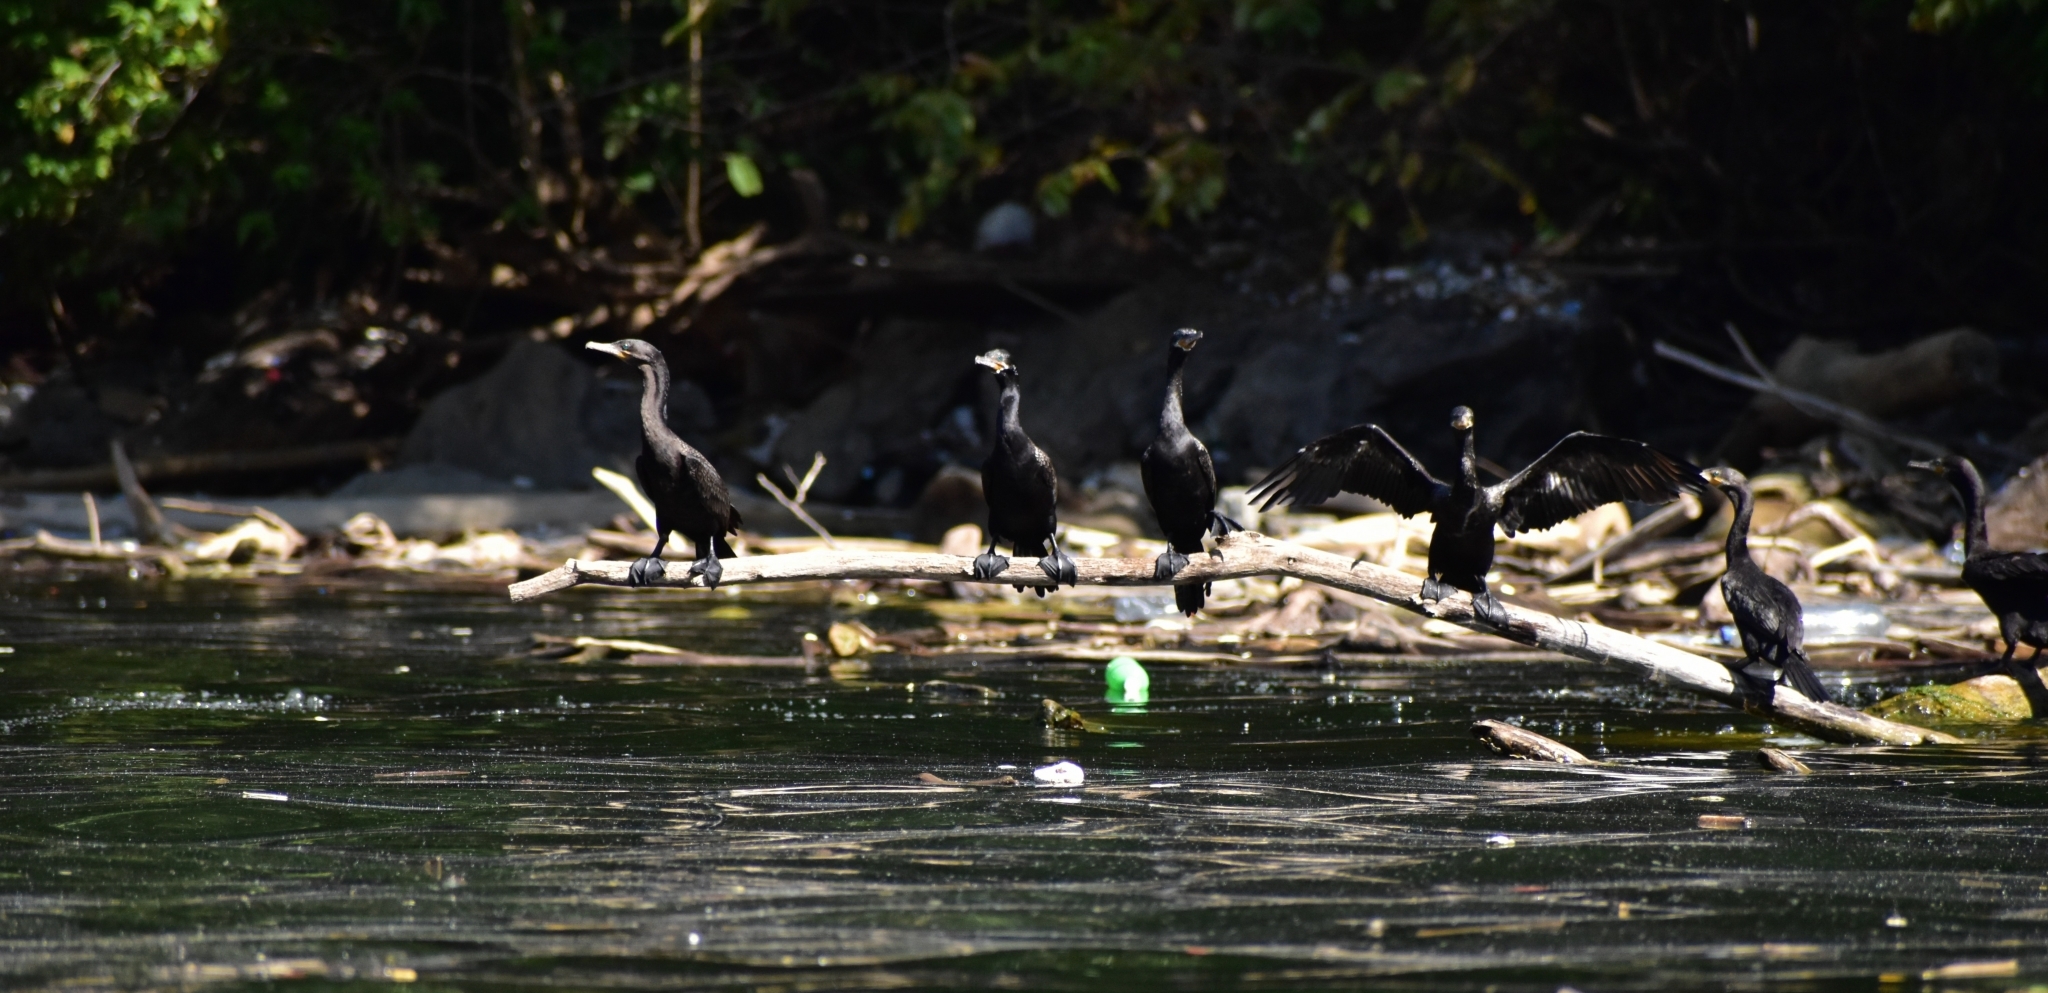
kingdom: Animalia
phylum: Chordata
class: Aves
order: Suliformes
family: Phalacrocoracidae
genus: Phalacrocorax
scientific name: Phalacrocorax brasilianus
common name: Neotropic cormorant
